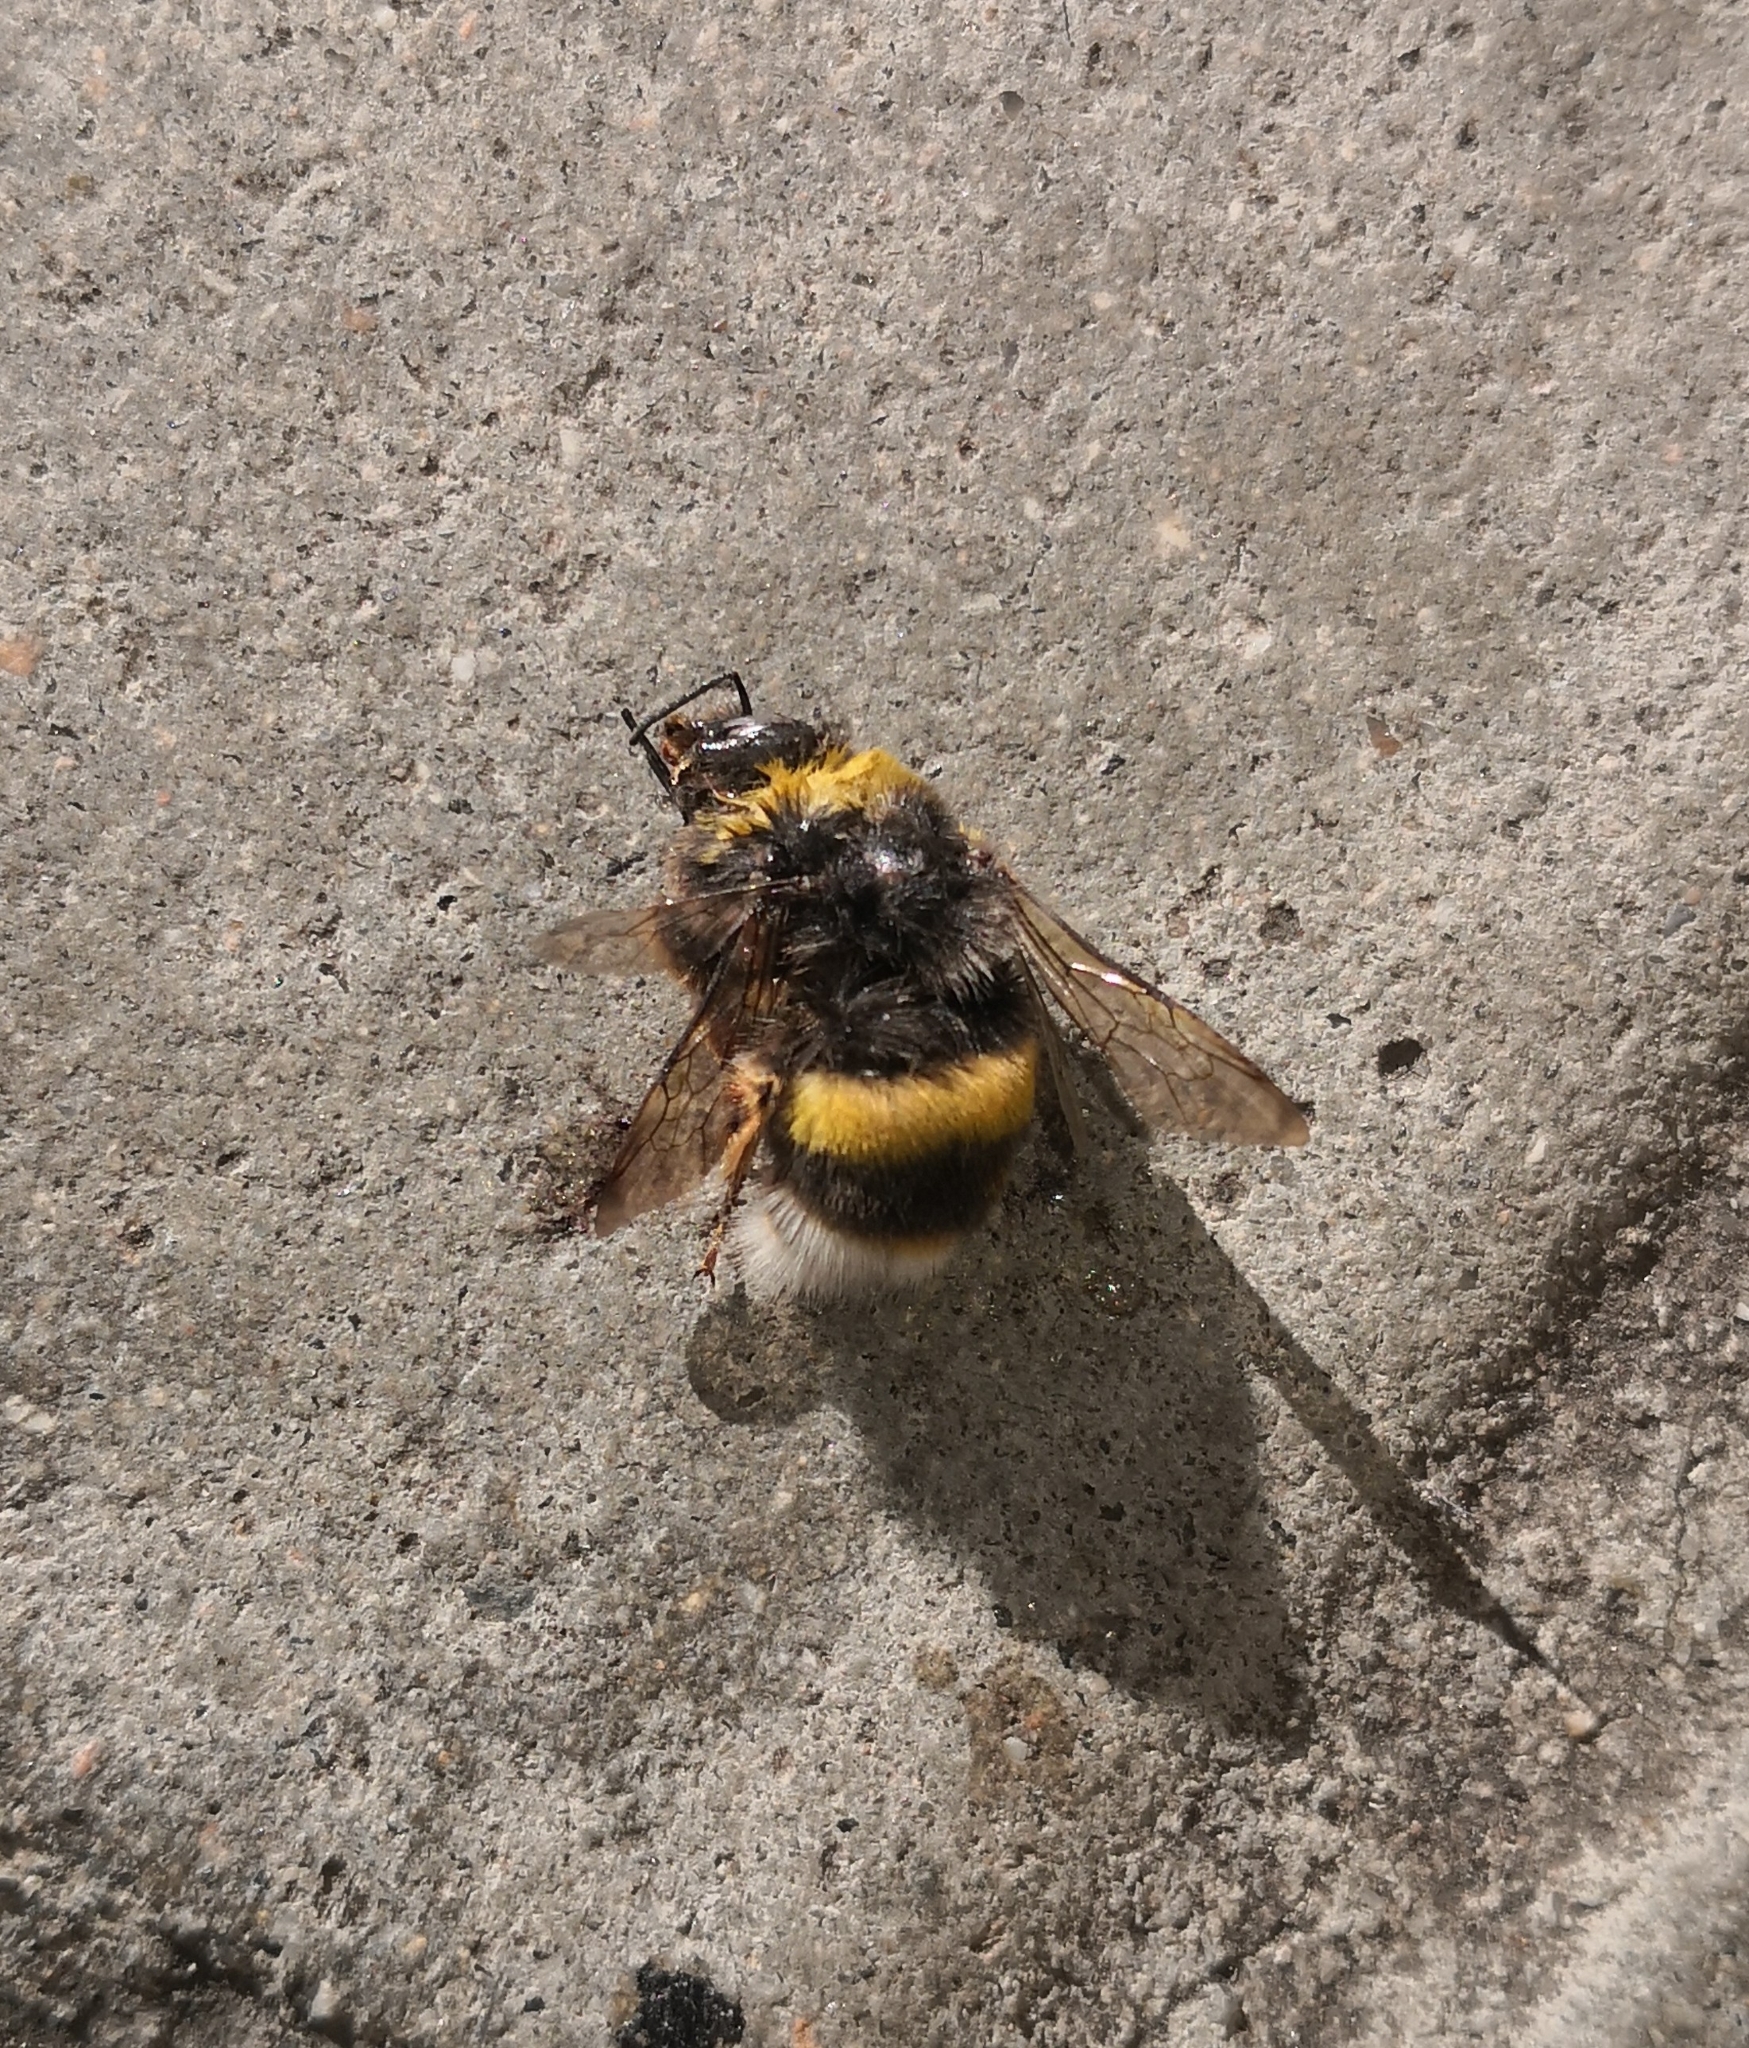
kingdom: Animalia
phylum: Arthropoda
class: Insecta
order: Hymenoptera
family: Apidae
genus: Bombus
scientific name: Bombus terrestris
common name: Buff-tailed bumblebee
